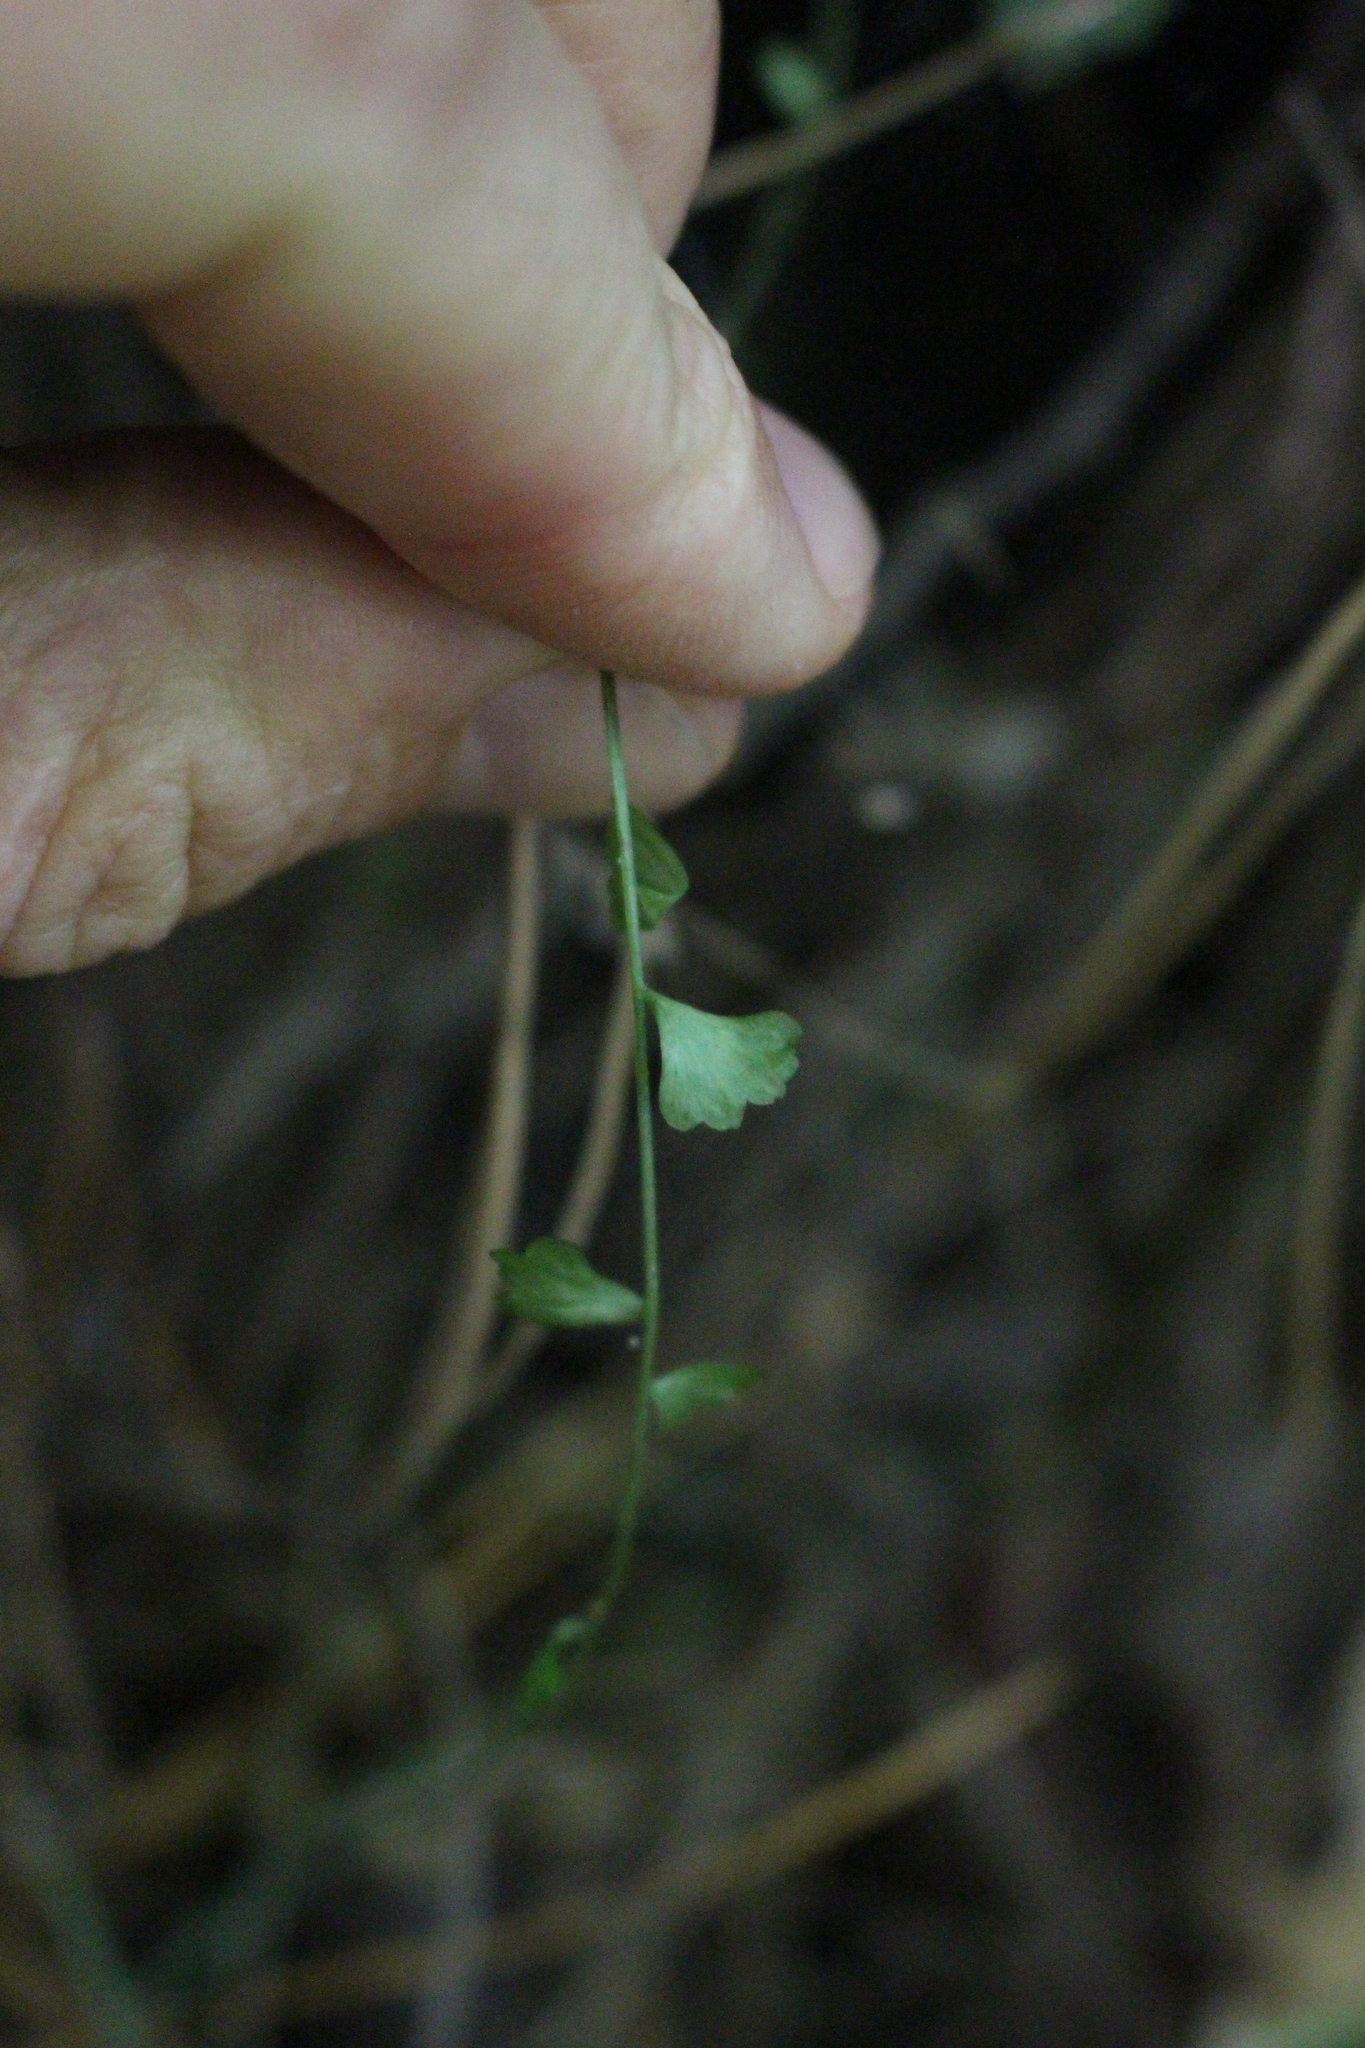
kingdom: Plantae
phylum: Tracheophyta
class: Polypodiopsida
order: Polypodiales
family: Aspleniaceae
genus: Asplenium
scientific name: Asplenium flabellifolium
